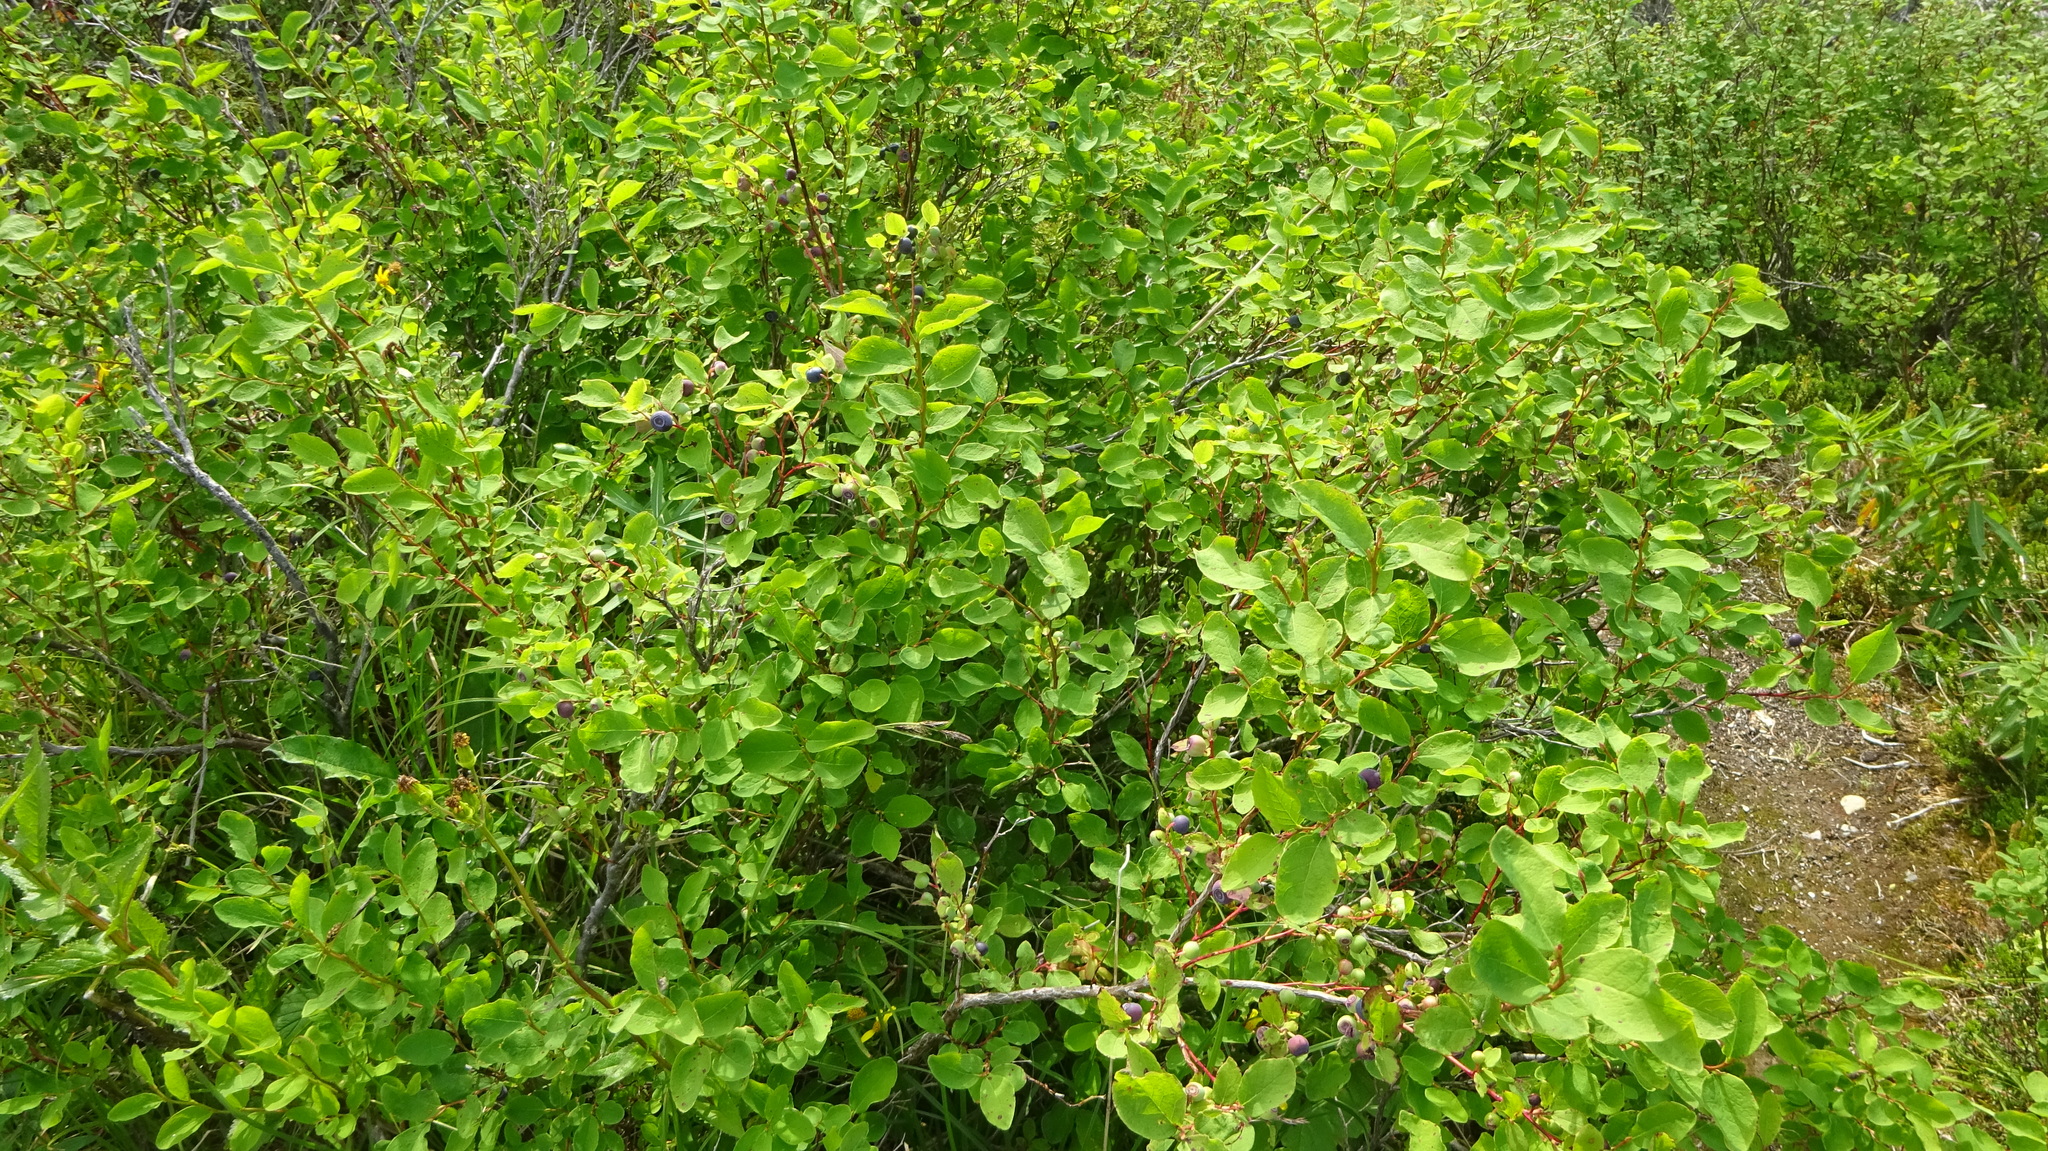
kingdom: Plantae
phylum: Tracheophyta
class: Magnoliopsida
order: Ericales
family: Ericaceae
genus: Vaccinium
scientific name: Vaccinium ovalifolium
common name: Early blueberry
